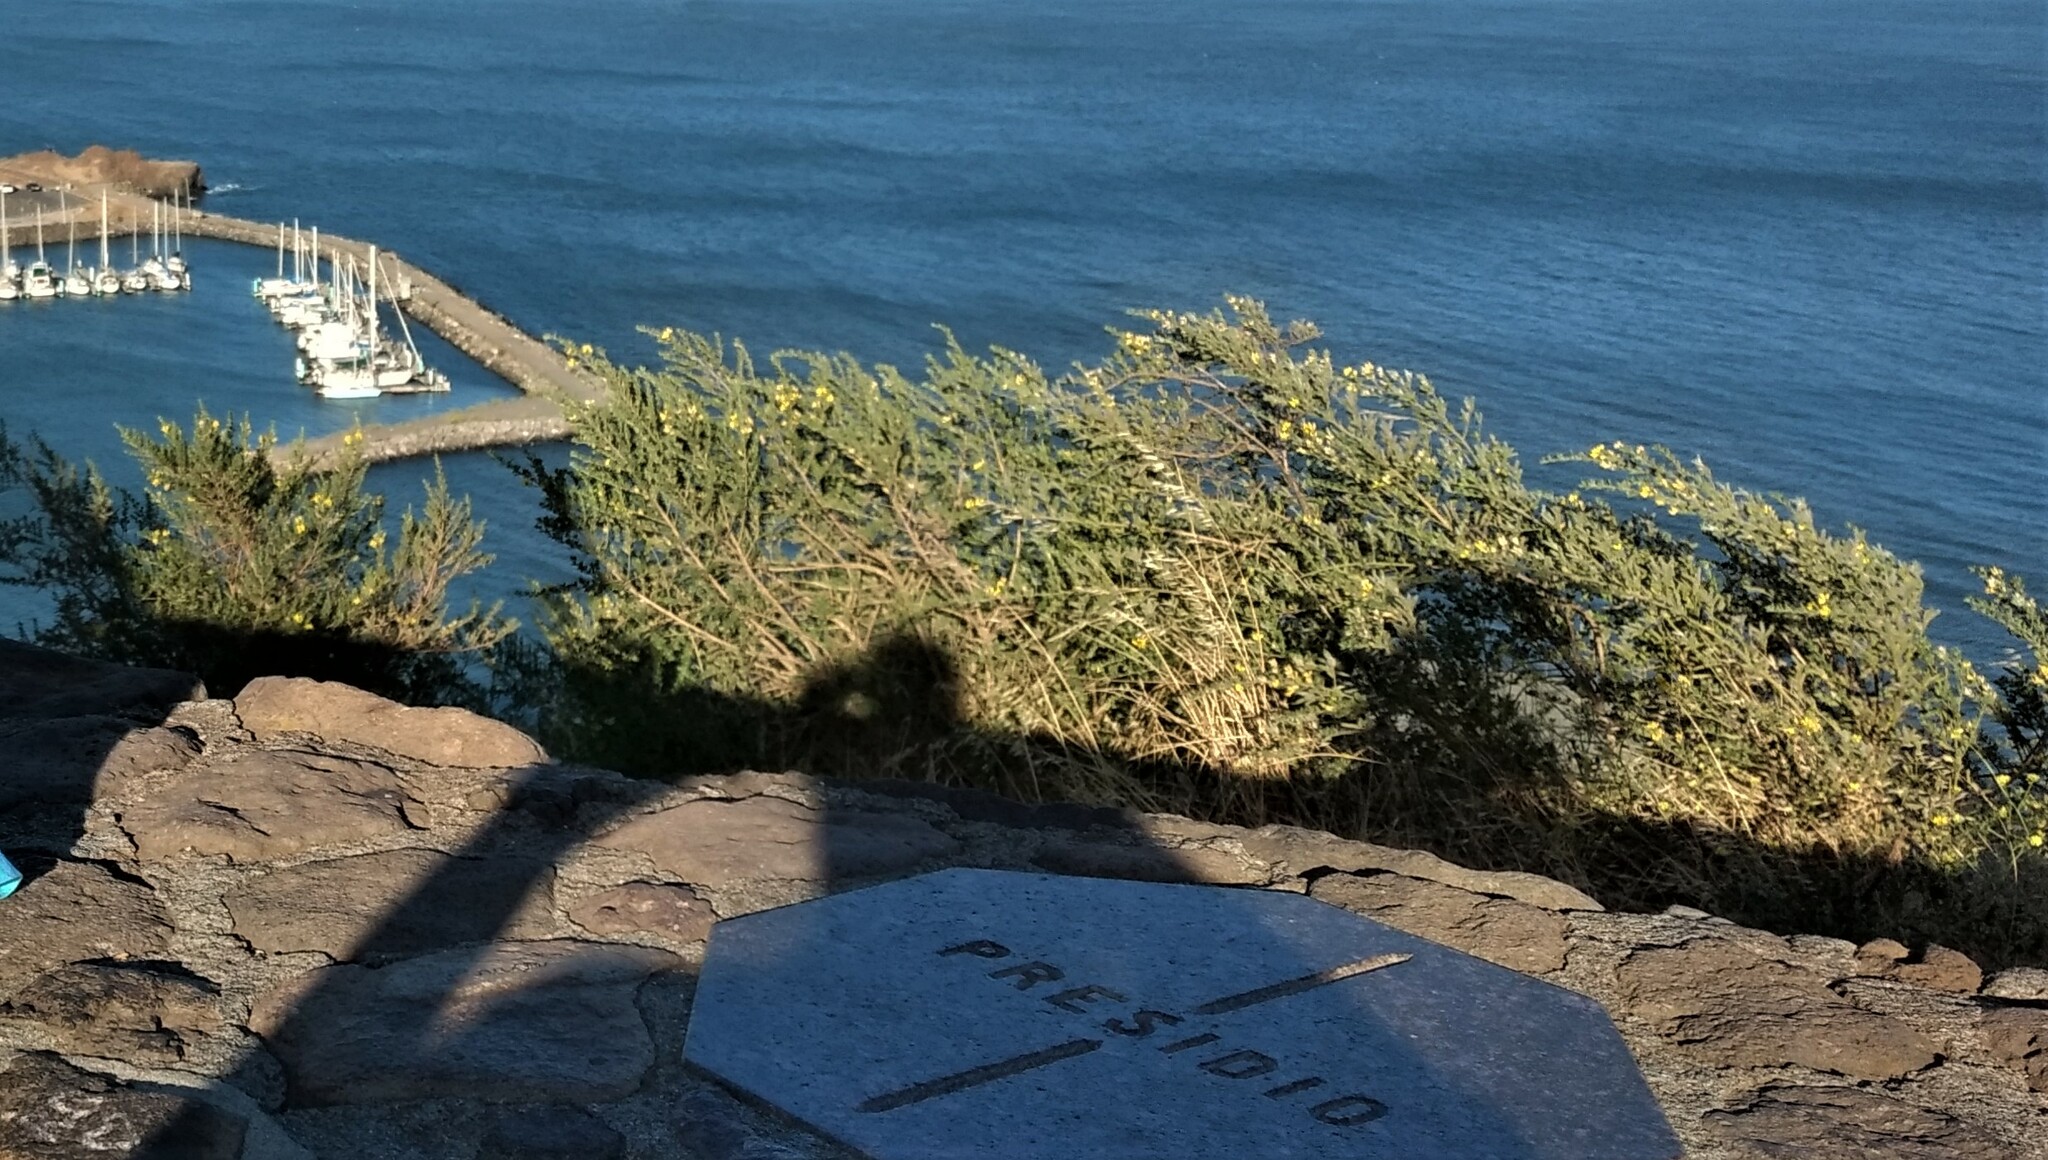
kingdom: Plantae
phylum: Tracheophyta
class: Magnoliopsida
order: Fabales
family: Fabaceae
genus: Genista
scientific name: Genista monspessulana
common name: Montpellier broom
